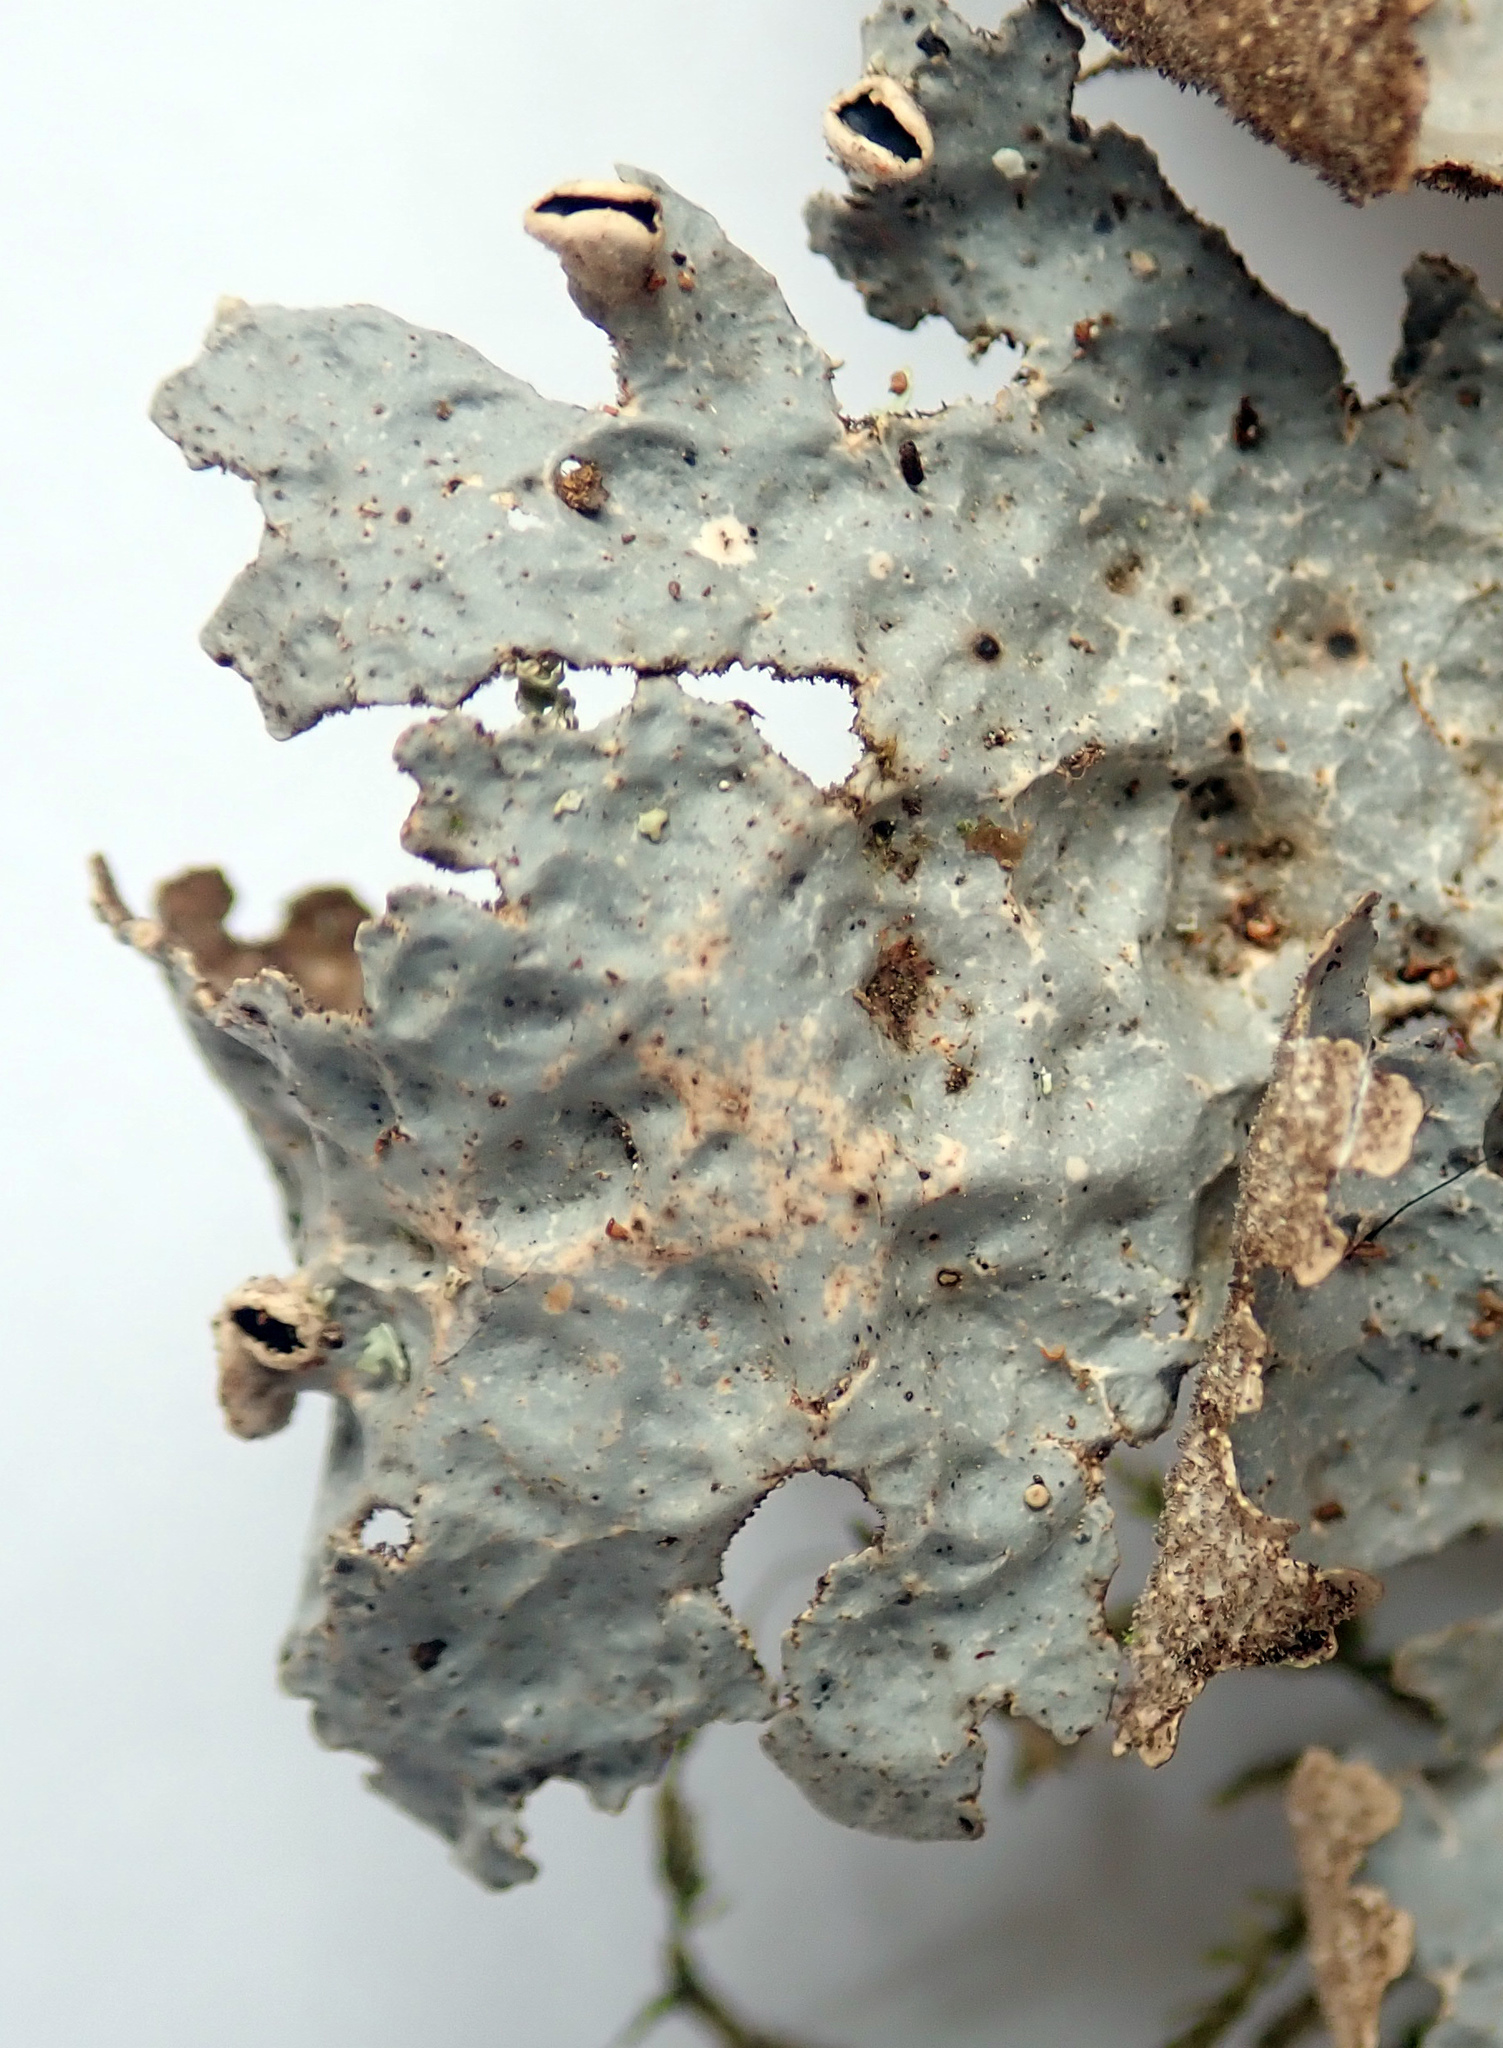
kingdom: Fungi
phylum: Ascomycota
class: Lecanoromycetes
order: Peltigerales
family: Lobariaceae
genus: Pseudocyphellaria
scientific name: Pseudocyphellaria hookeri
